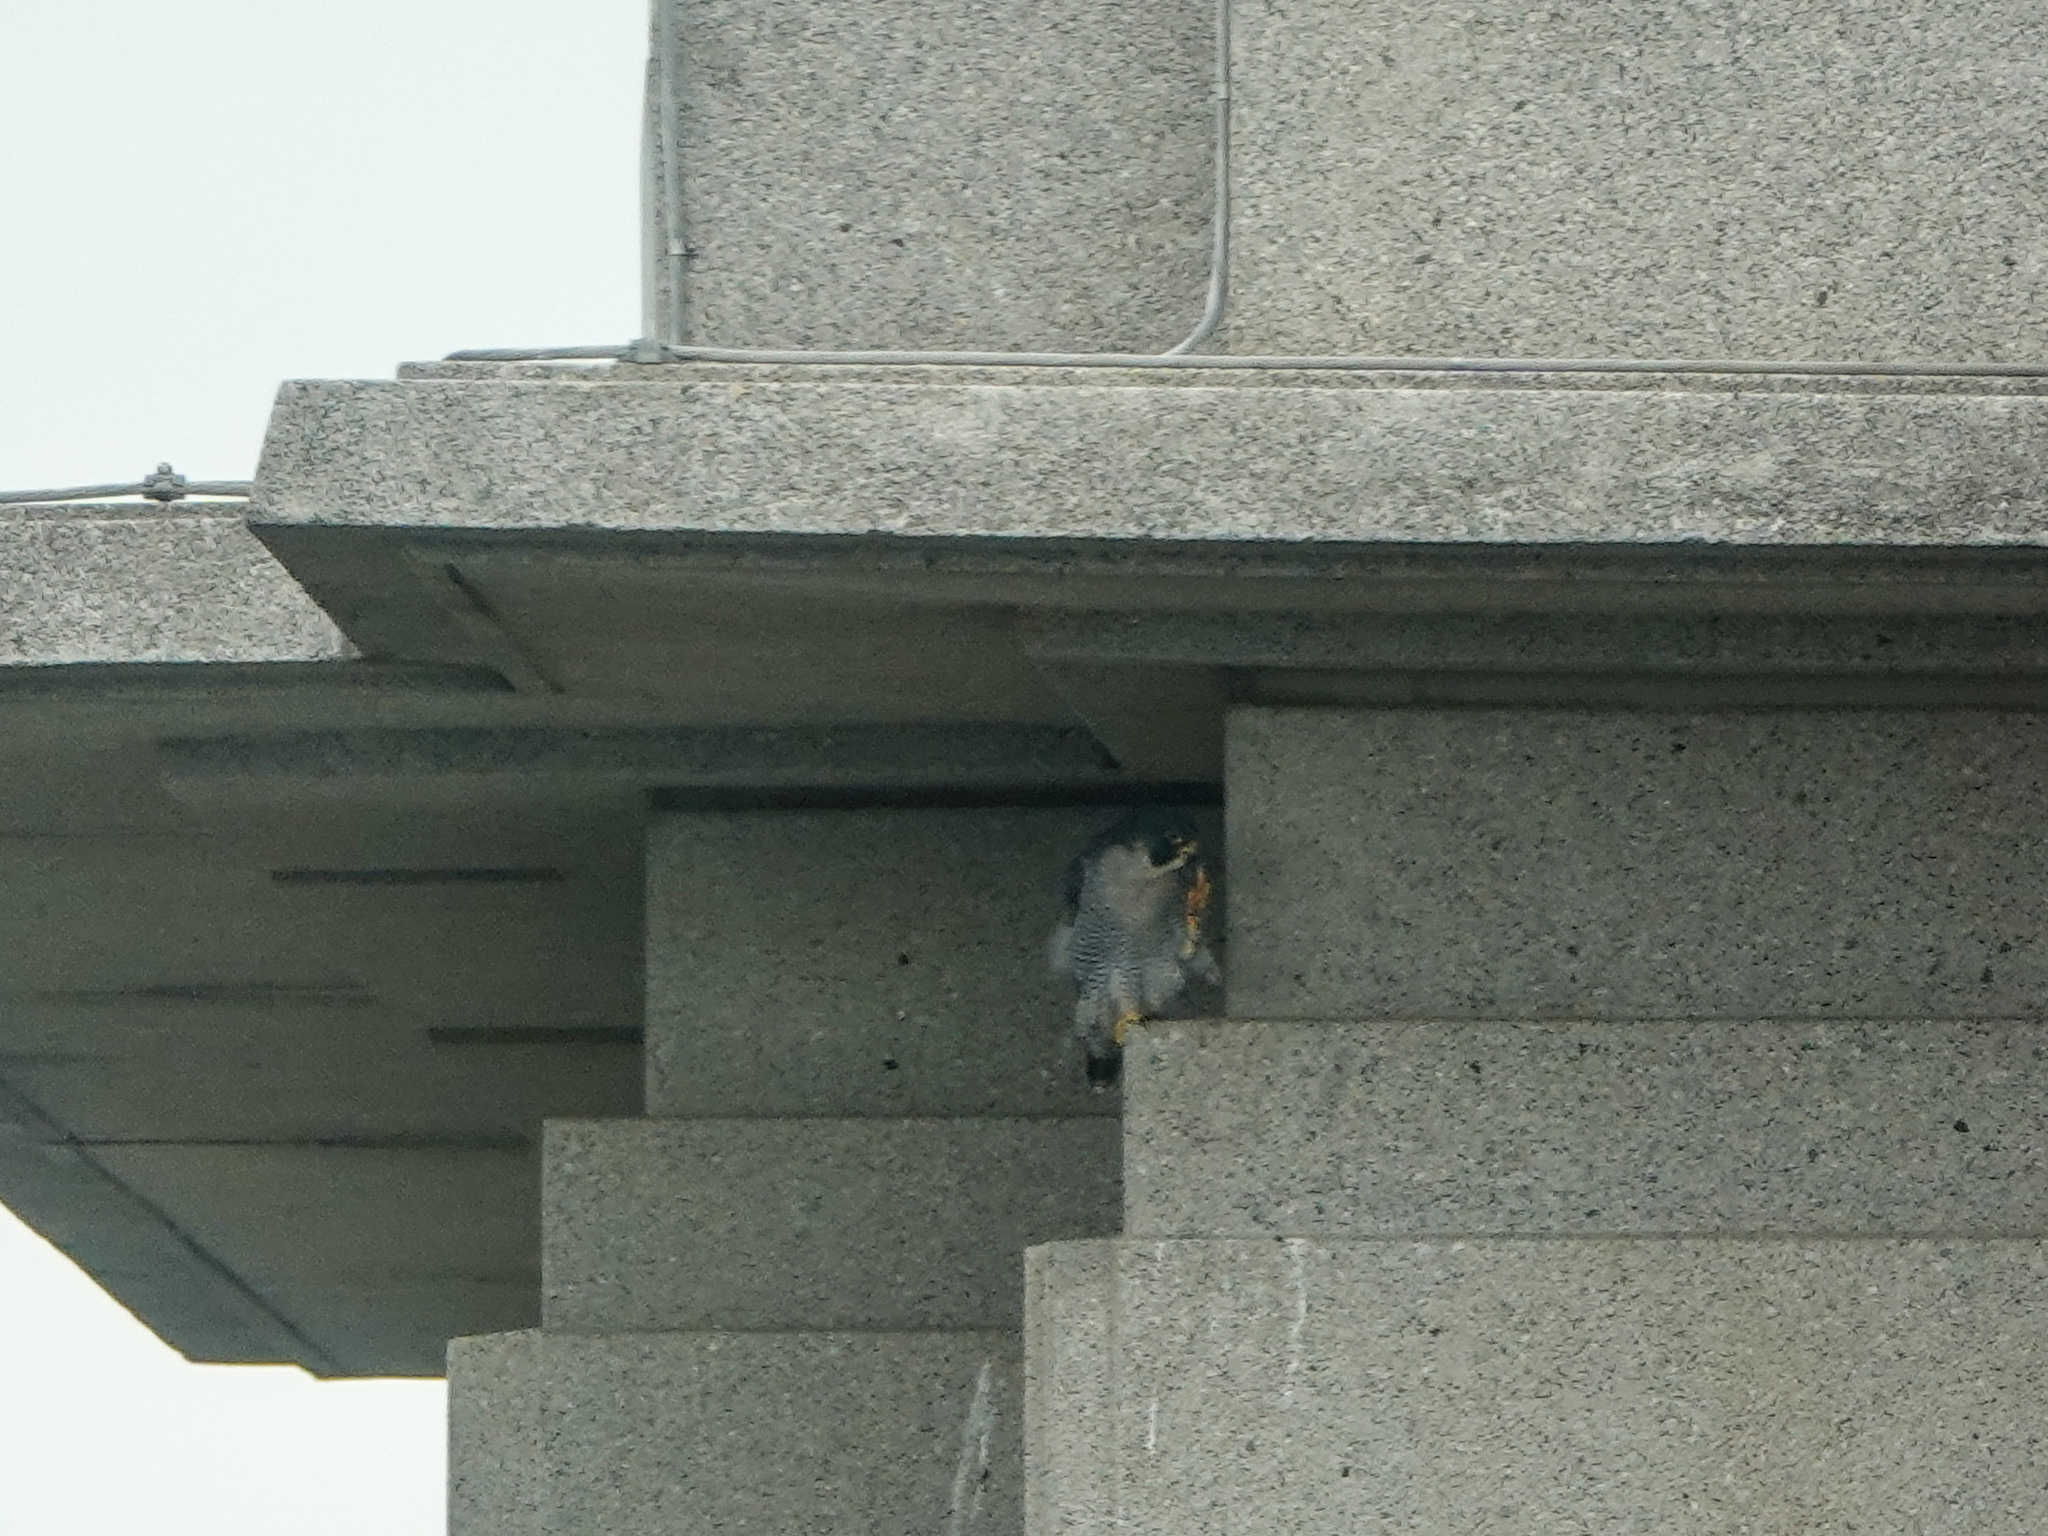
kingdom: Animalia
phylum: Chordata
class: Aves
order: Falconiformes
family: Falconidae
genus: Falco
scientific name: Falco peregrinus
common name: Peregrine falcon
